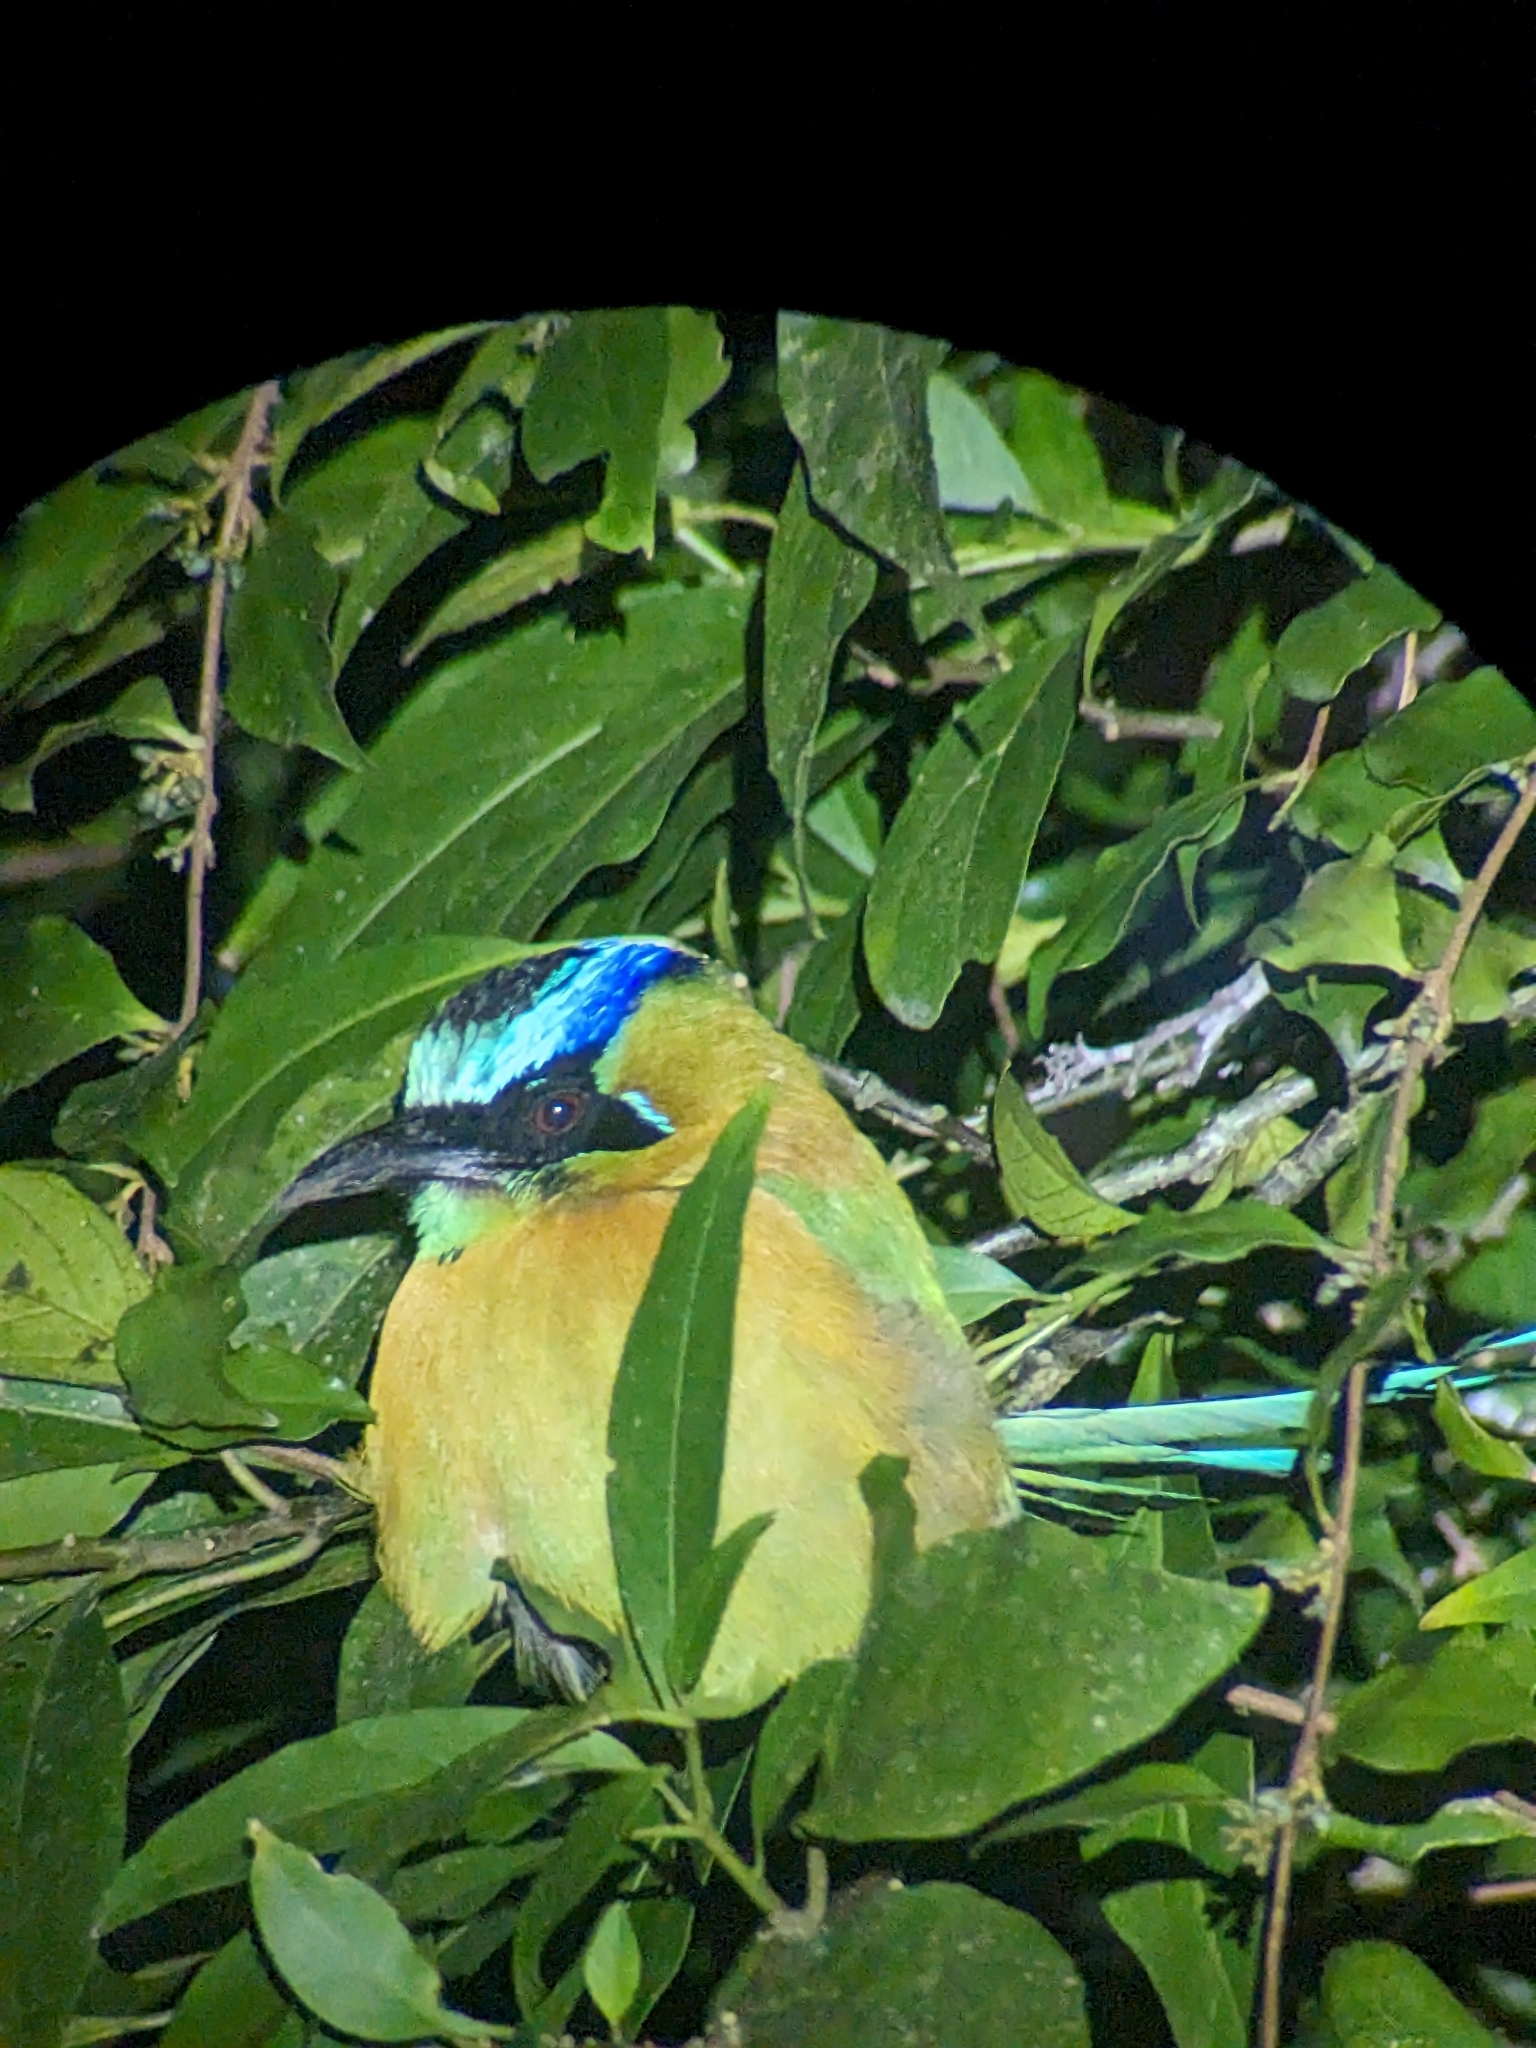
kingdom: Animalia
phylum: Chordata
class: Aves
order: Coraciiformes
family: Momotidae
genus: Momotus
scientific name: Momotus lessonii
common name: Lesson's motmot
